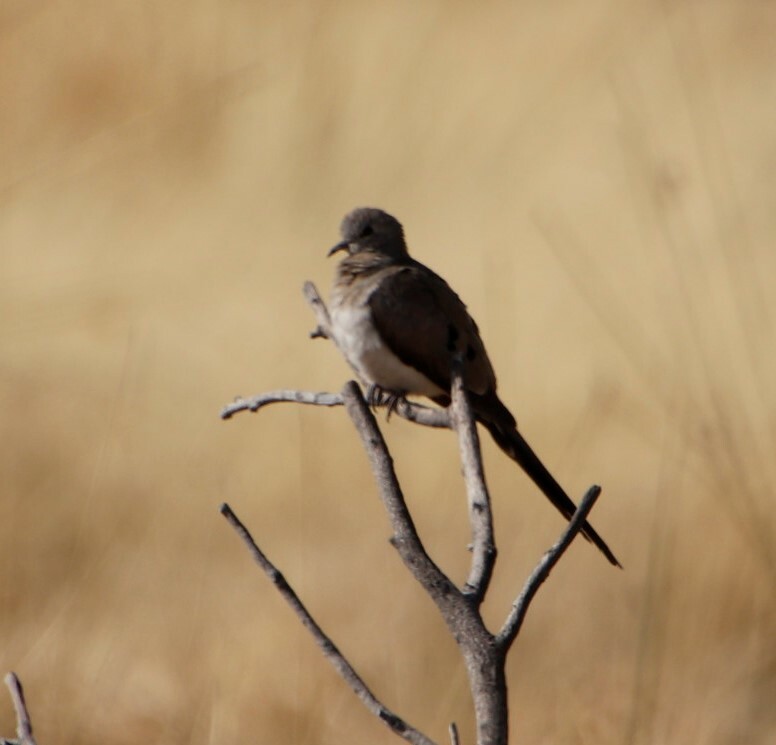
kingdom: Animalia
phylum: Chordata
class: Aves
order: Columbiformes
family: Columbidae
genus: Oena
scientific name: Oena capensis
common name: Namaqua dove
